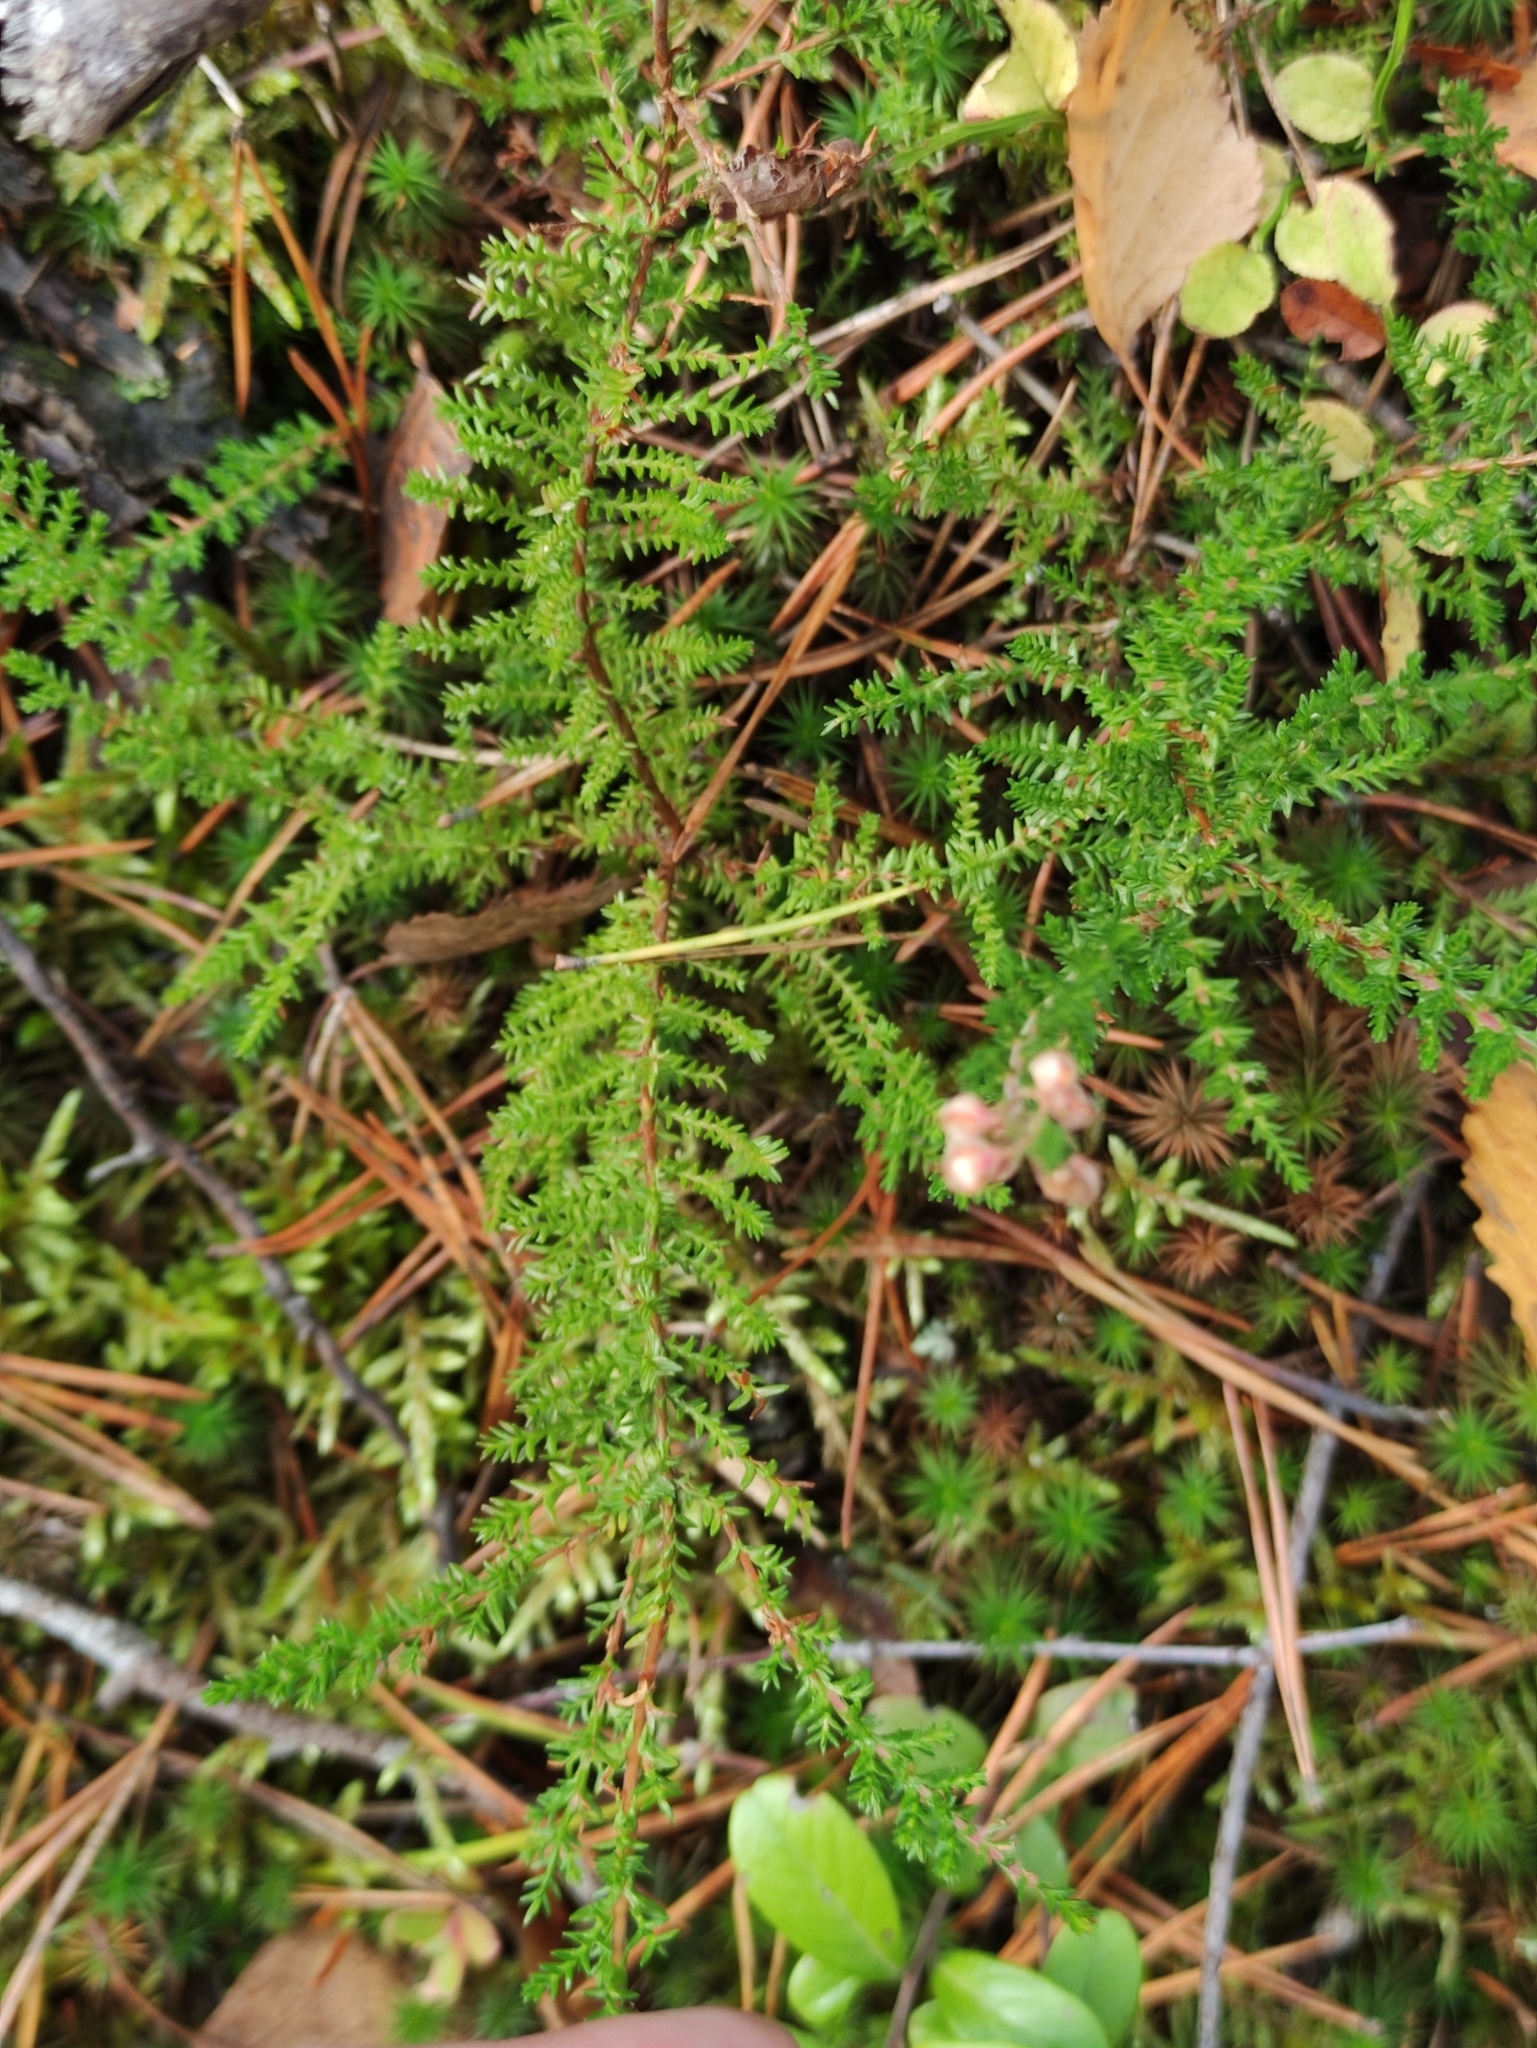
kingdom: Plantae
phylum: Tracheophyta
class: Magnoliopsida
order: Ericales
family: Ericaceae
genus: Calluna
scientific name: Calluna vulgaris
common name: Heather
